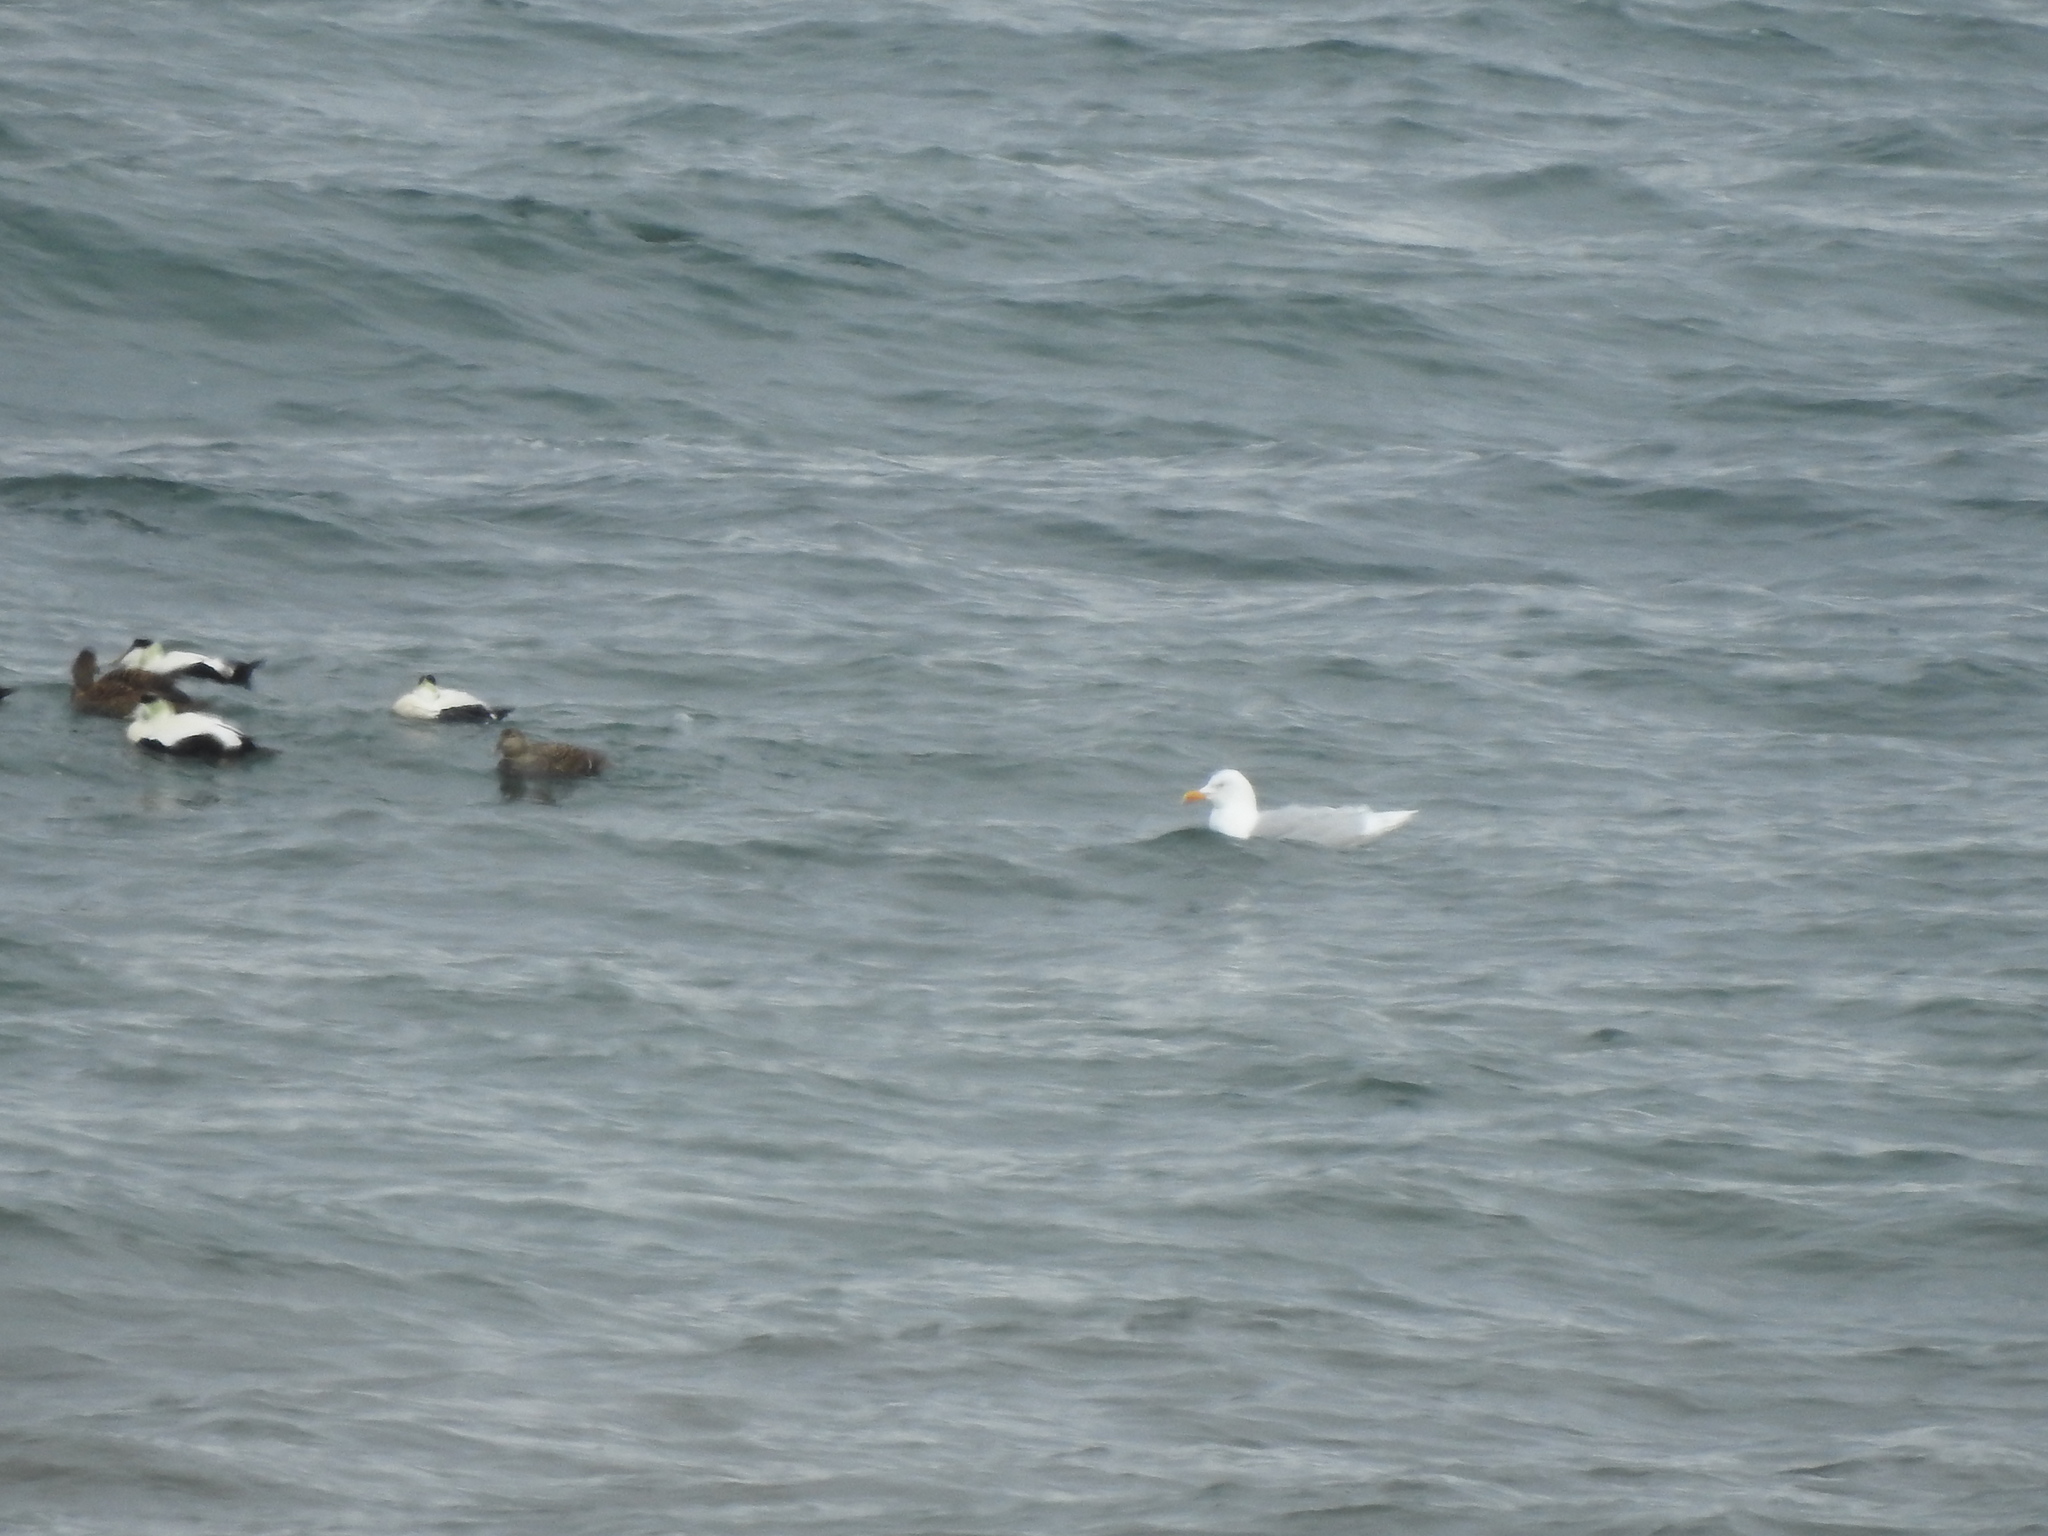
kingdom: Animalia
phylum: Chordata
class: Aves
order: Charadriiformes
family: Laridae
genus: Larus
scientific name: Larus hyperboreus
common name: Glaucous gull
